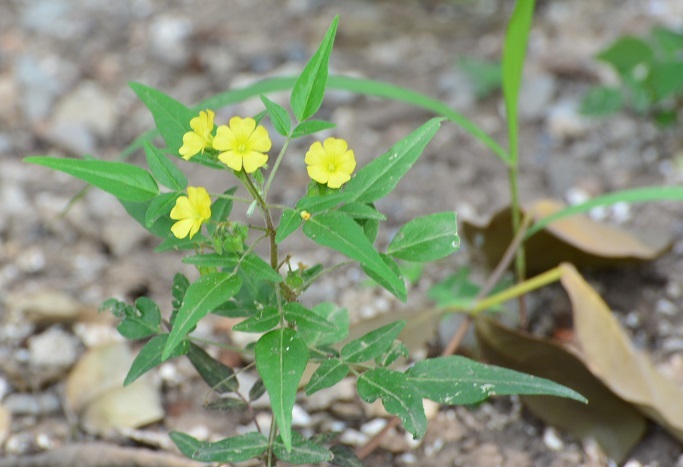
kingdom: Plantae
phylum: Tracheophyta
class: Magnoliopsida
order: Oxalidales
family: Oxalidaceae
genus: Oxalis
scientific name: Oxalis frutescens
